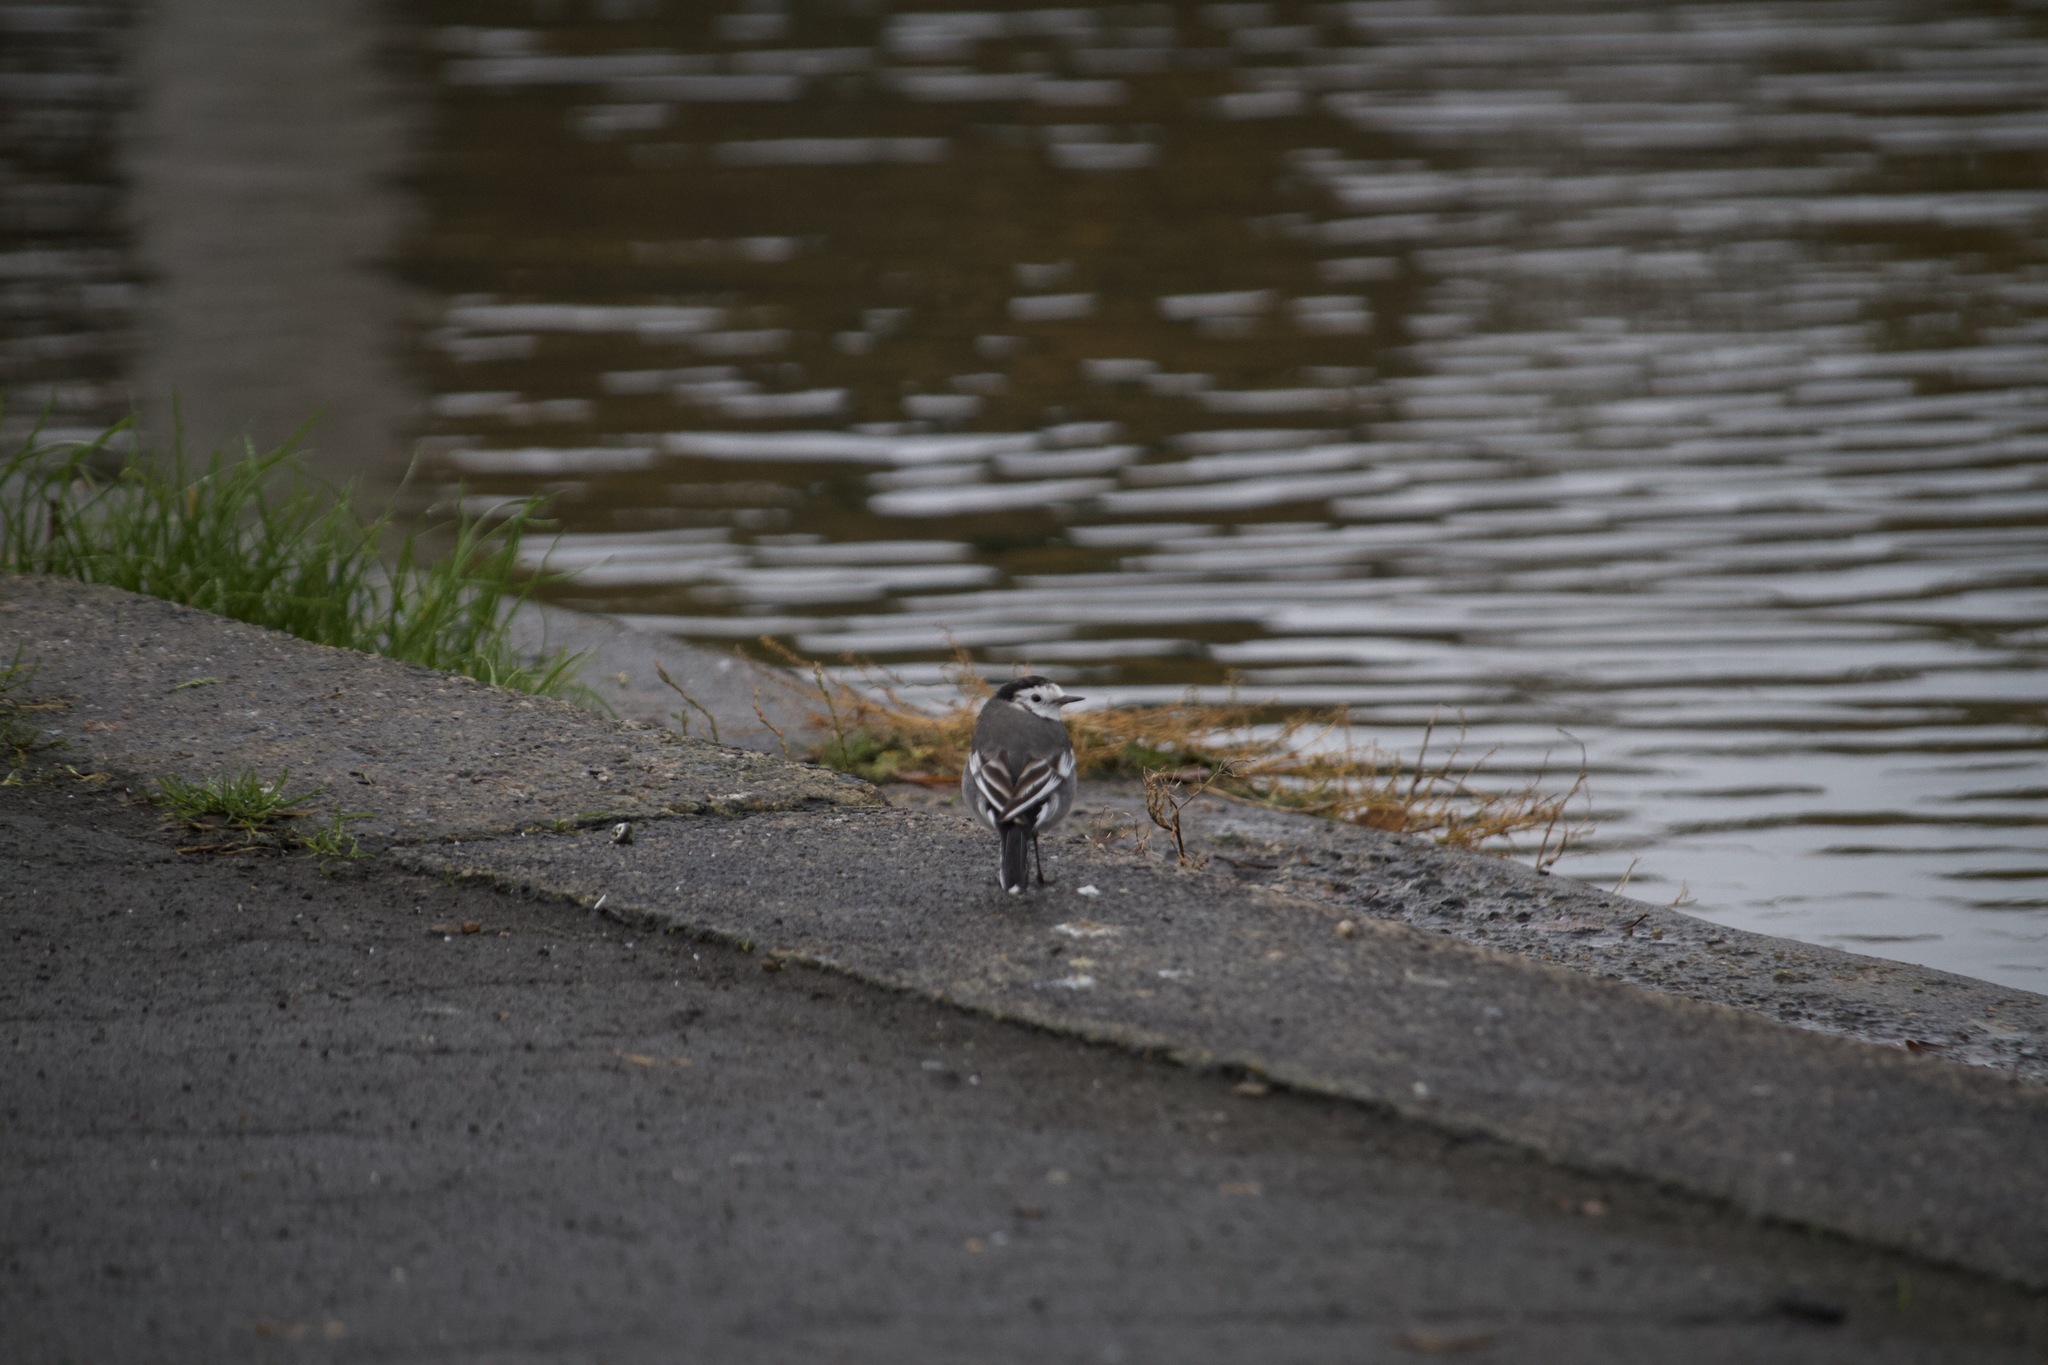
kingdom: Animalia
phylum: Chordata
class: Aves
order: Passeriformes
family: Motacillidae
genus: Motacilla
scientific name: Motacilla alba
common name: White wagtail
